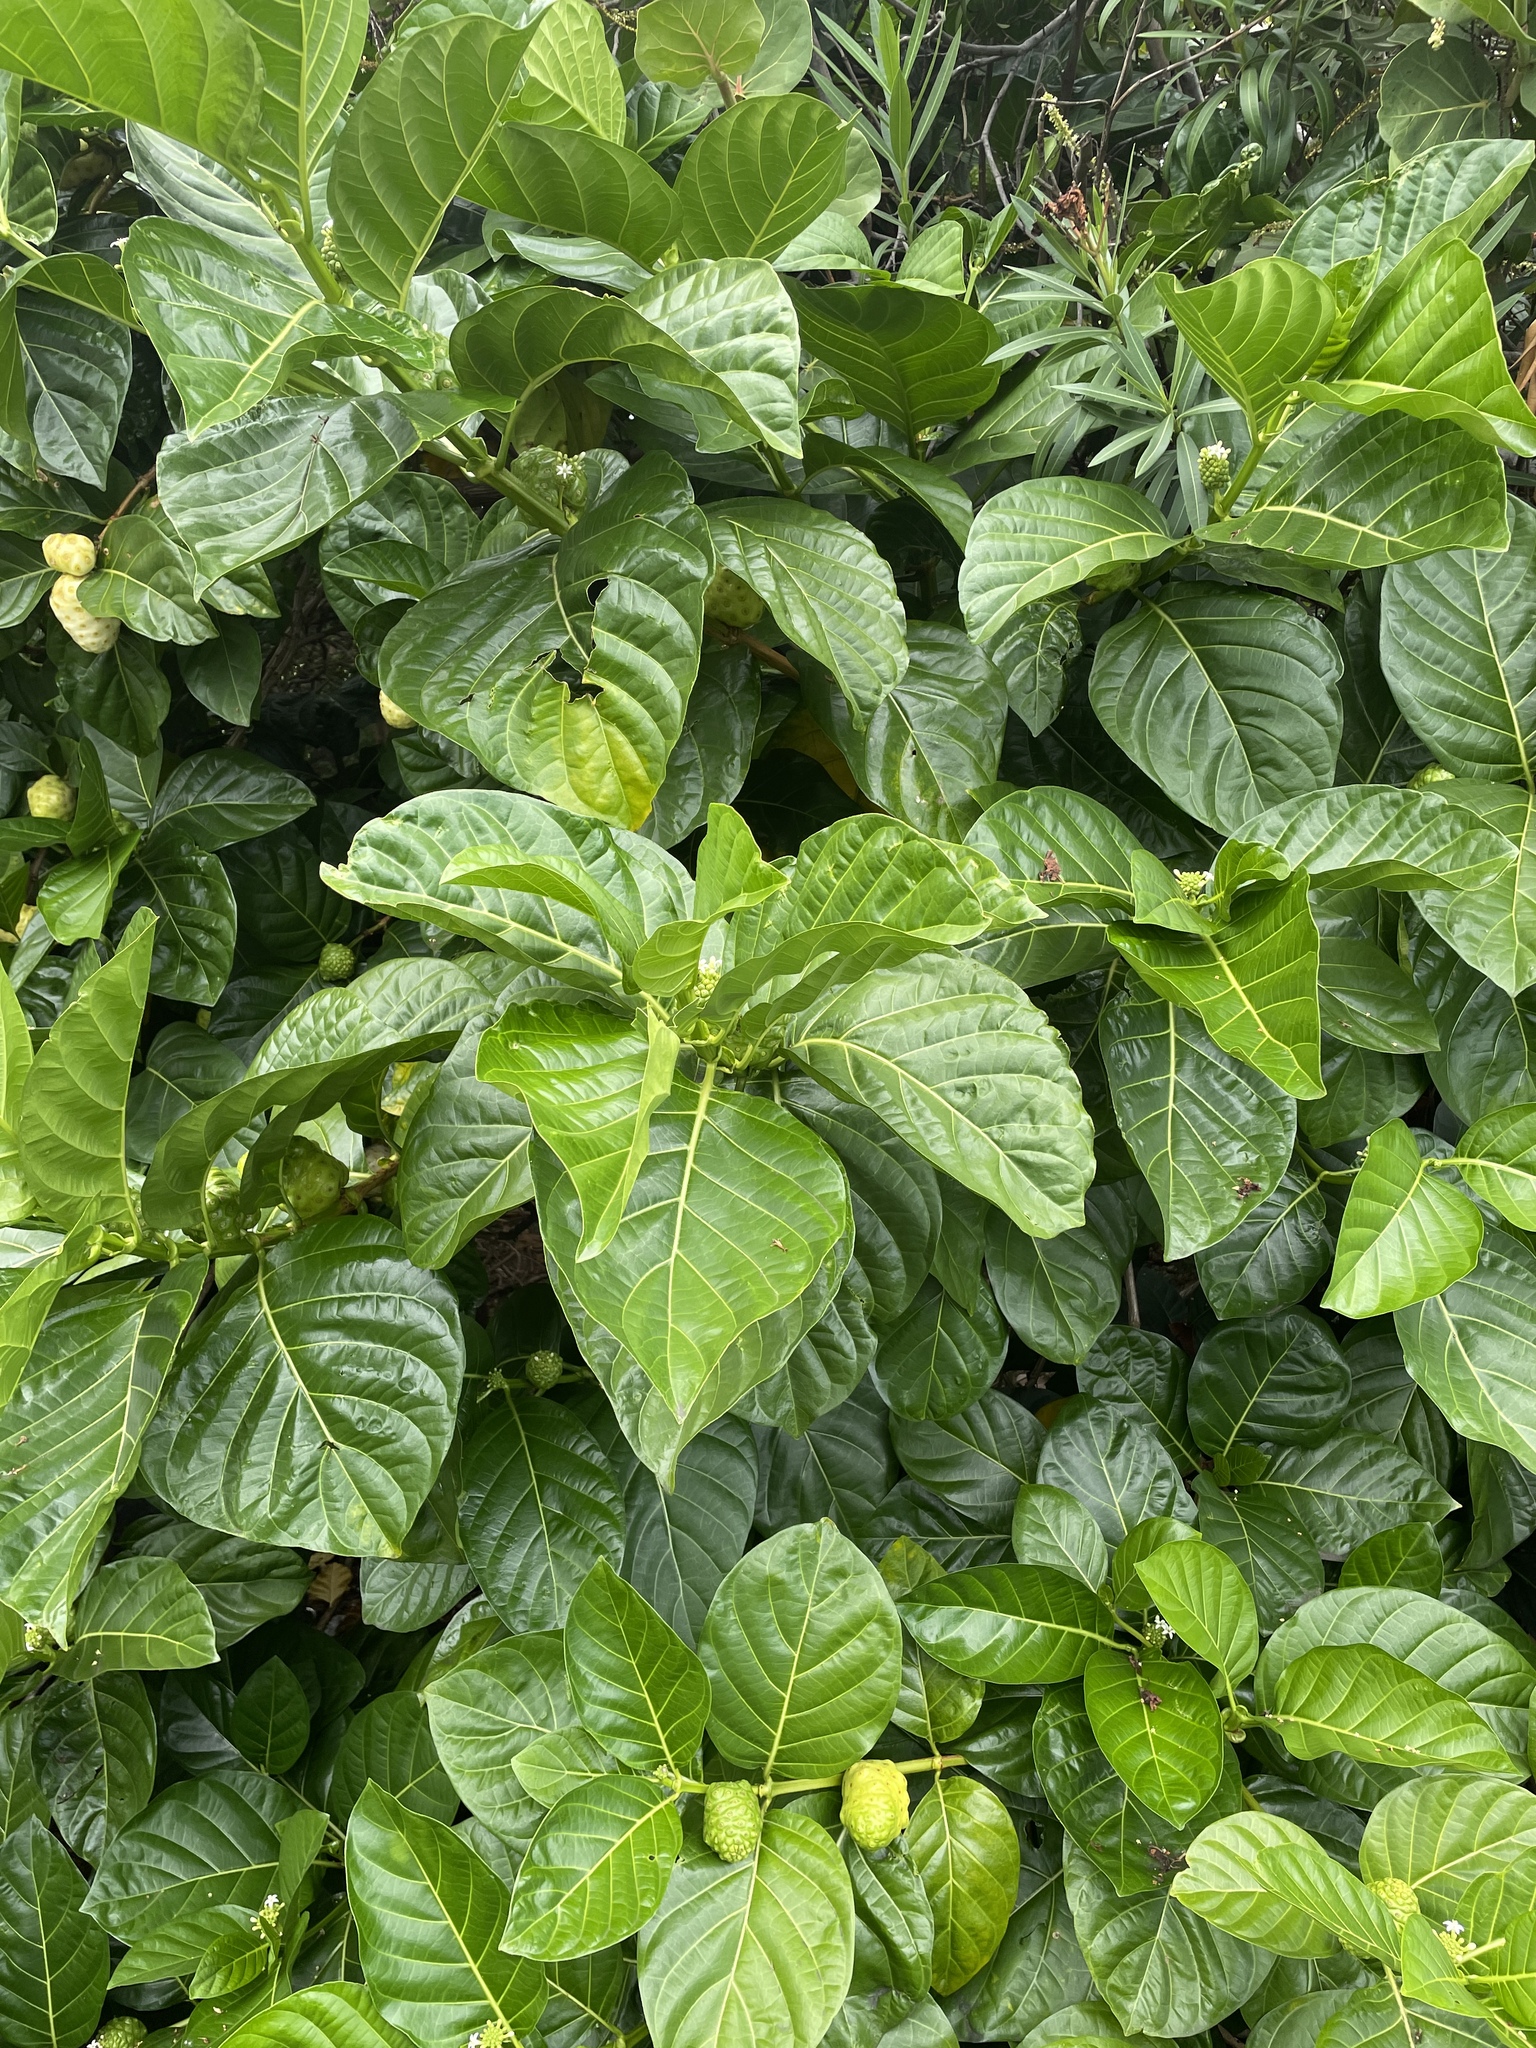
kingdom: Plantae
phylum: Tracheophyta
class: Magnoliopsida
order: Gentianales
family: Rubiaceae
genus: Morinda
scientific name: Morinda citrifolia
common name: Indian-mulberry
